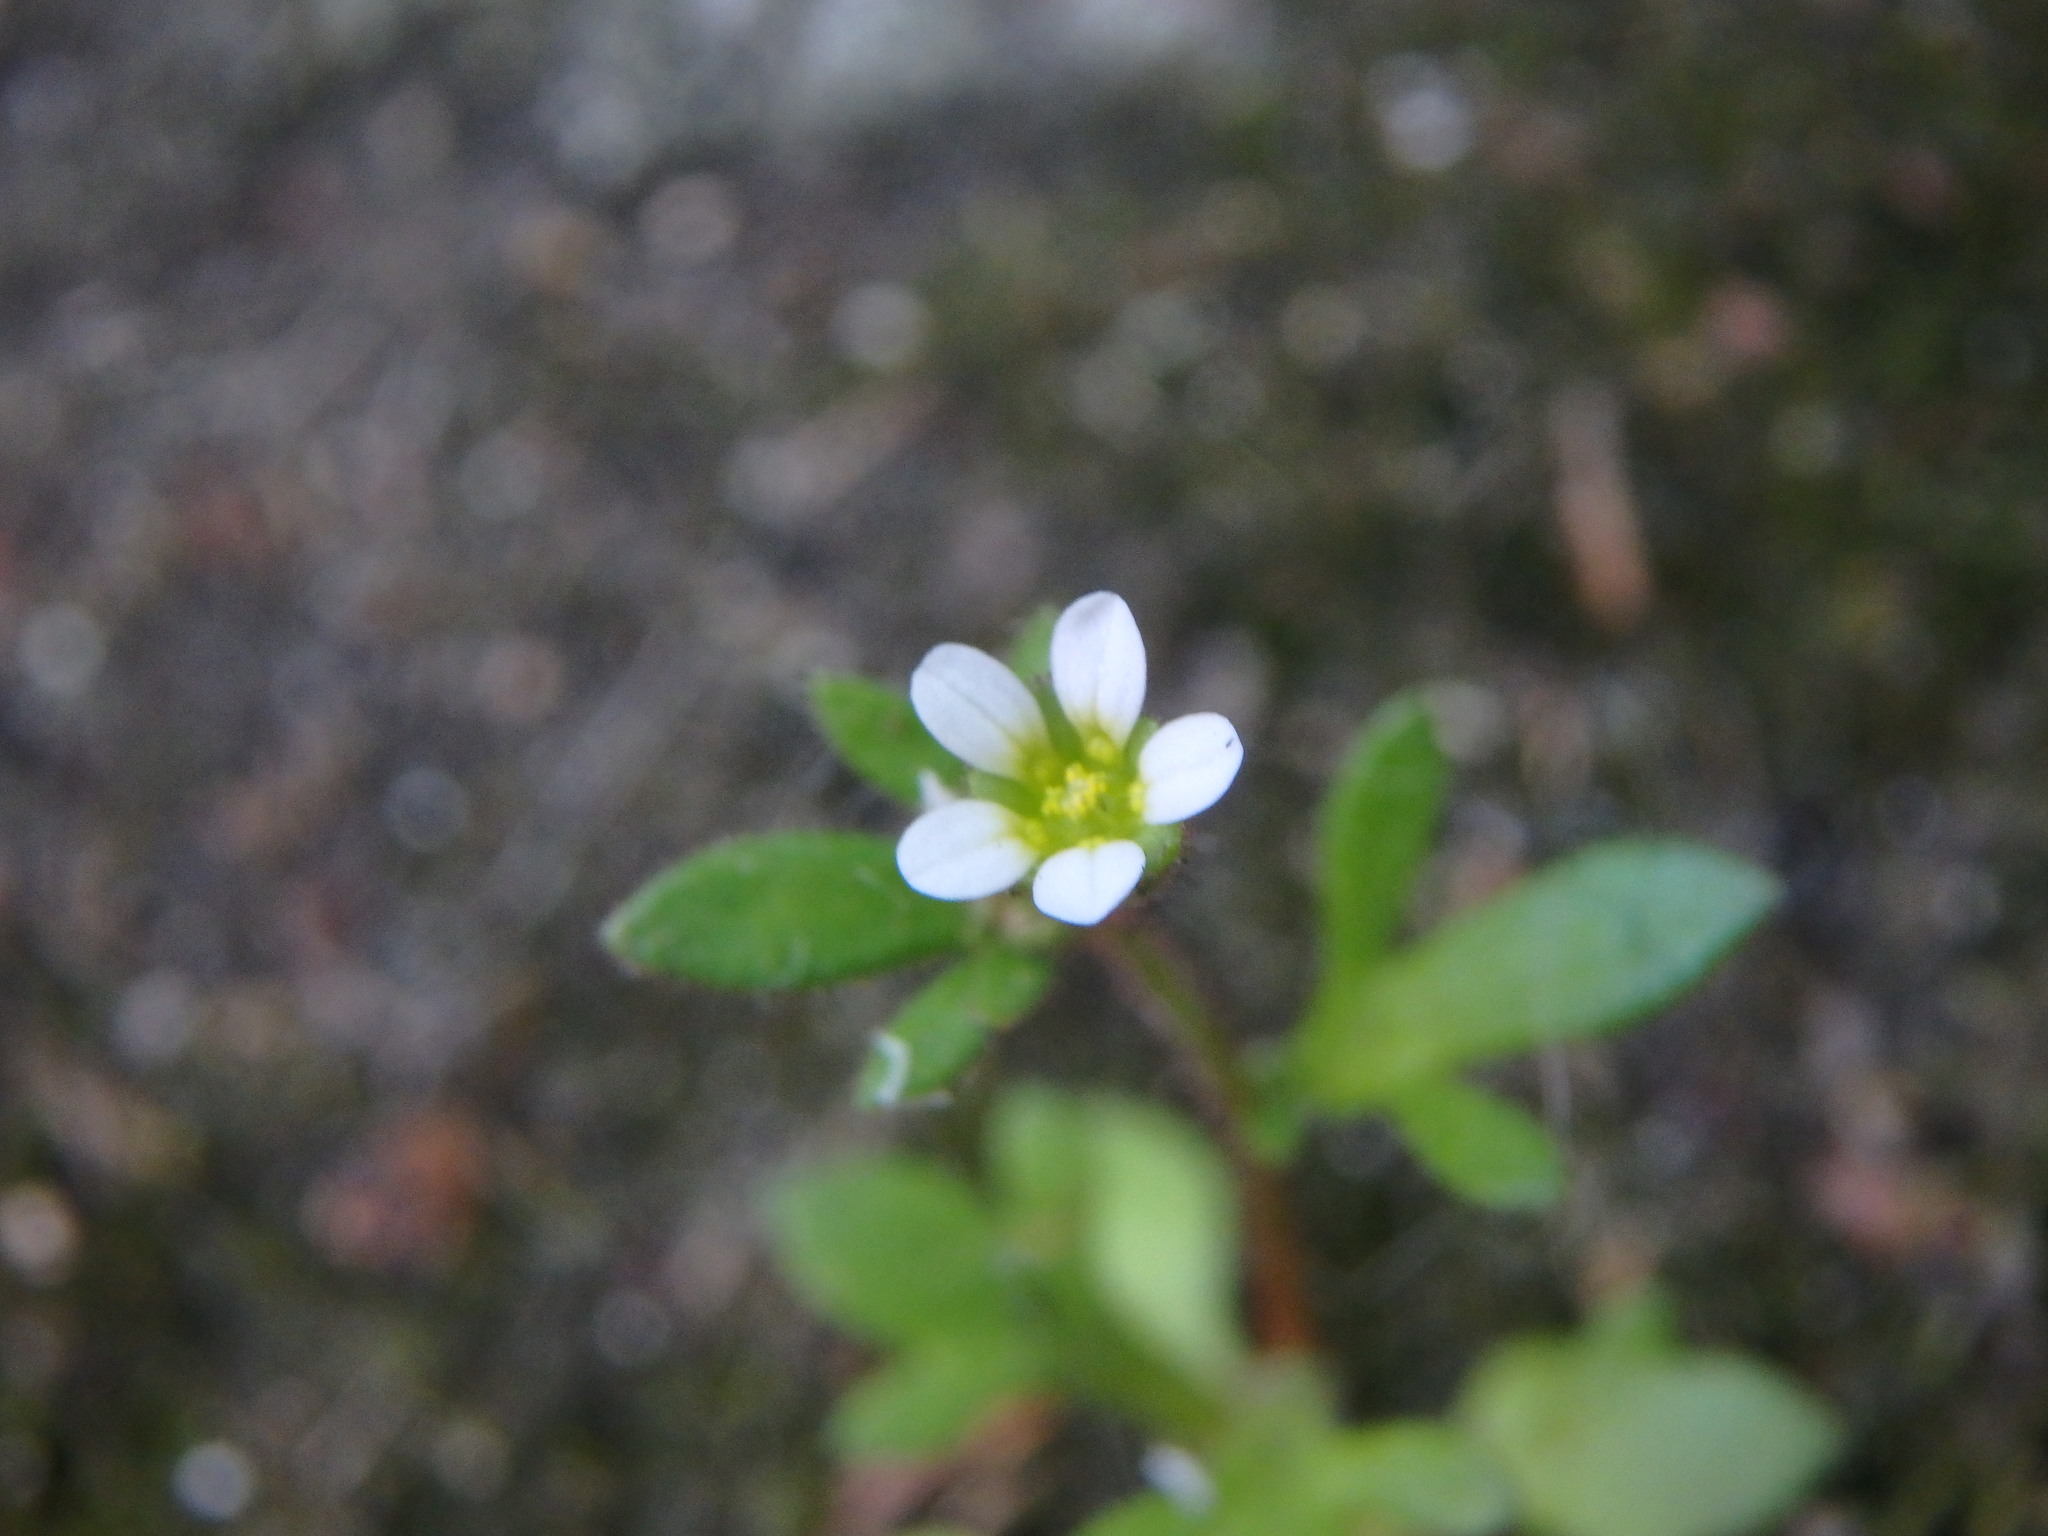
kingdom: Plantae
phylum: Tracheophyta
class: Magnoliopsida
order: Saxifragales
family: Saxifragaceae
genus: Saxifraga
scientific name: Saxifraga tridactylites
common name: Rue-leaved saxifrage
